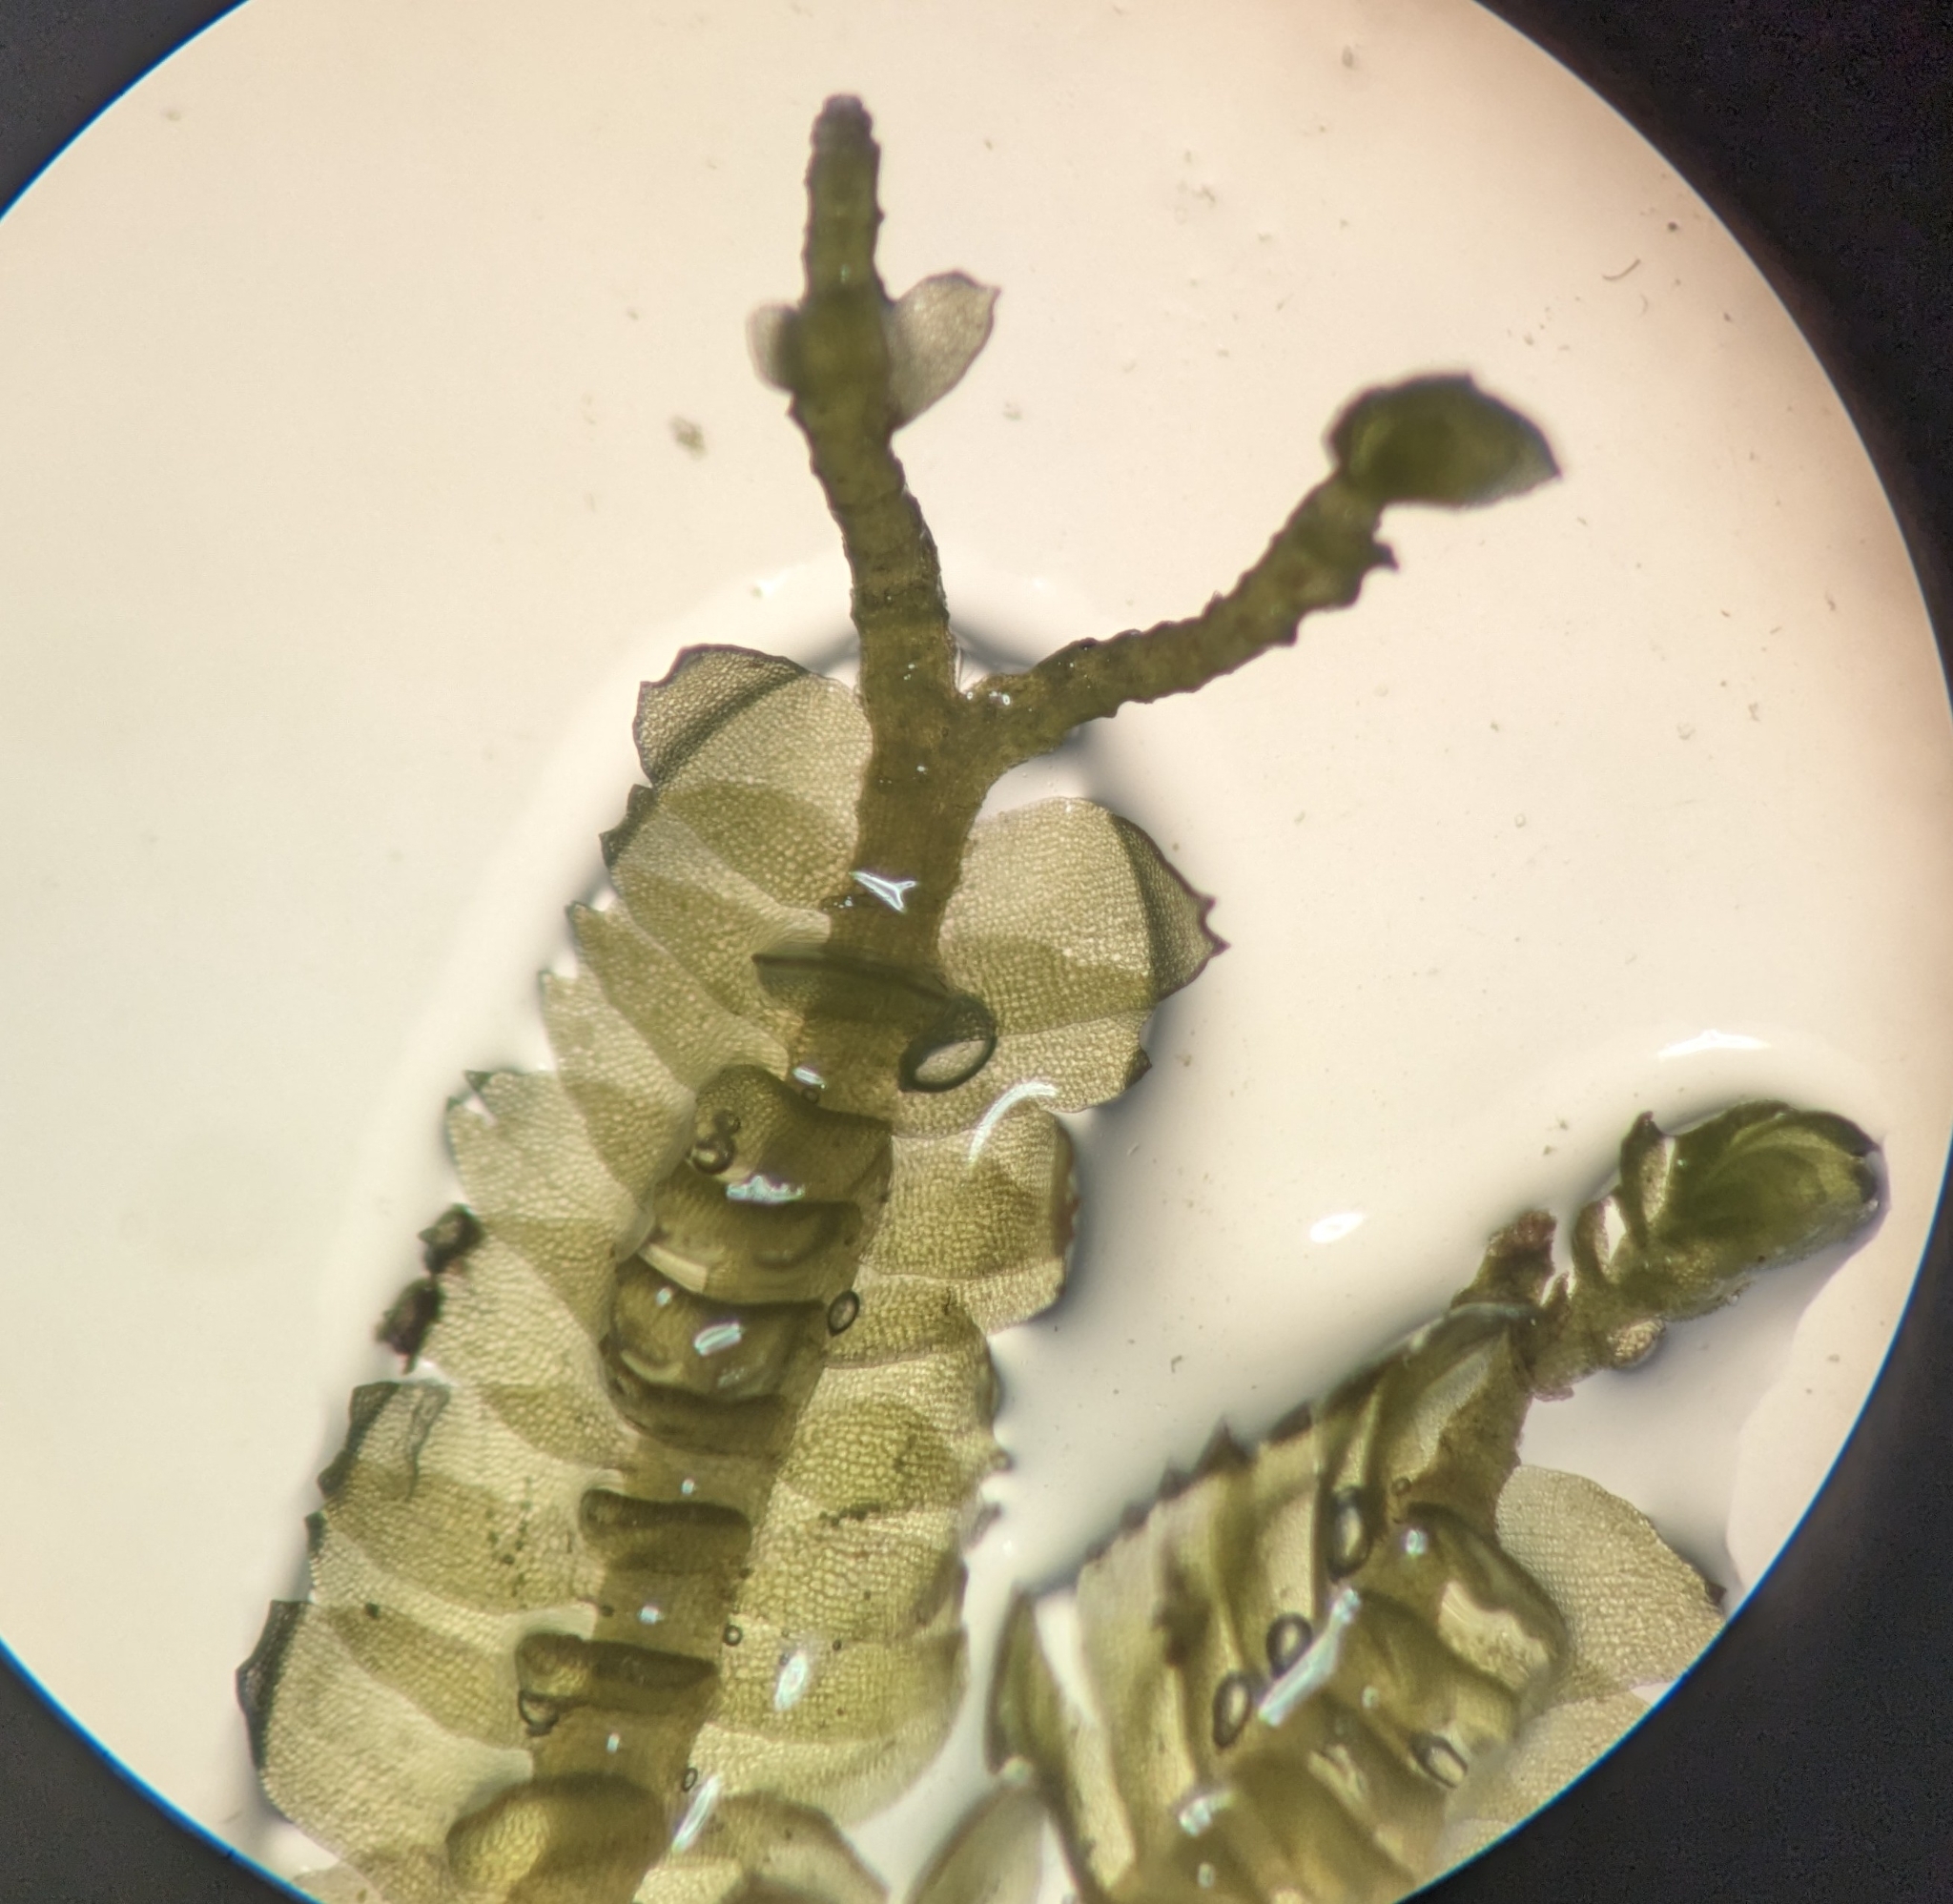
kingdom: Plantae
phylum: Marchantiophyta
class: Jungermanniopsida
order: Jungermanniales
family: Lepidoziaceae
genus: Bazzania
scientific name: Bazzania denudata
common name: Naked whipwort
